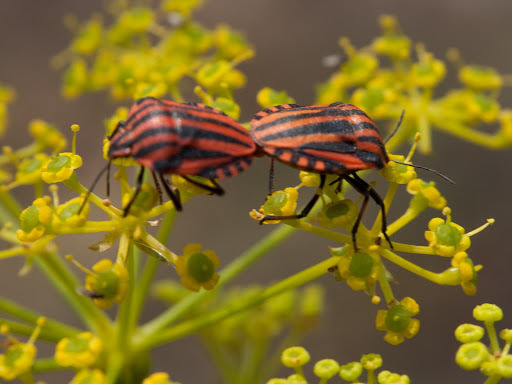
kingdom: Animalia
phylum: Arthropoda
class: Insecta
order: Hemiptera
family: Pentatomidae
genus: Graphosoma
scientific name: Graphosoma italicum
